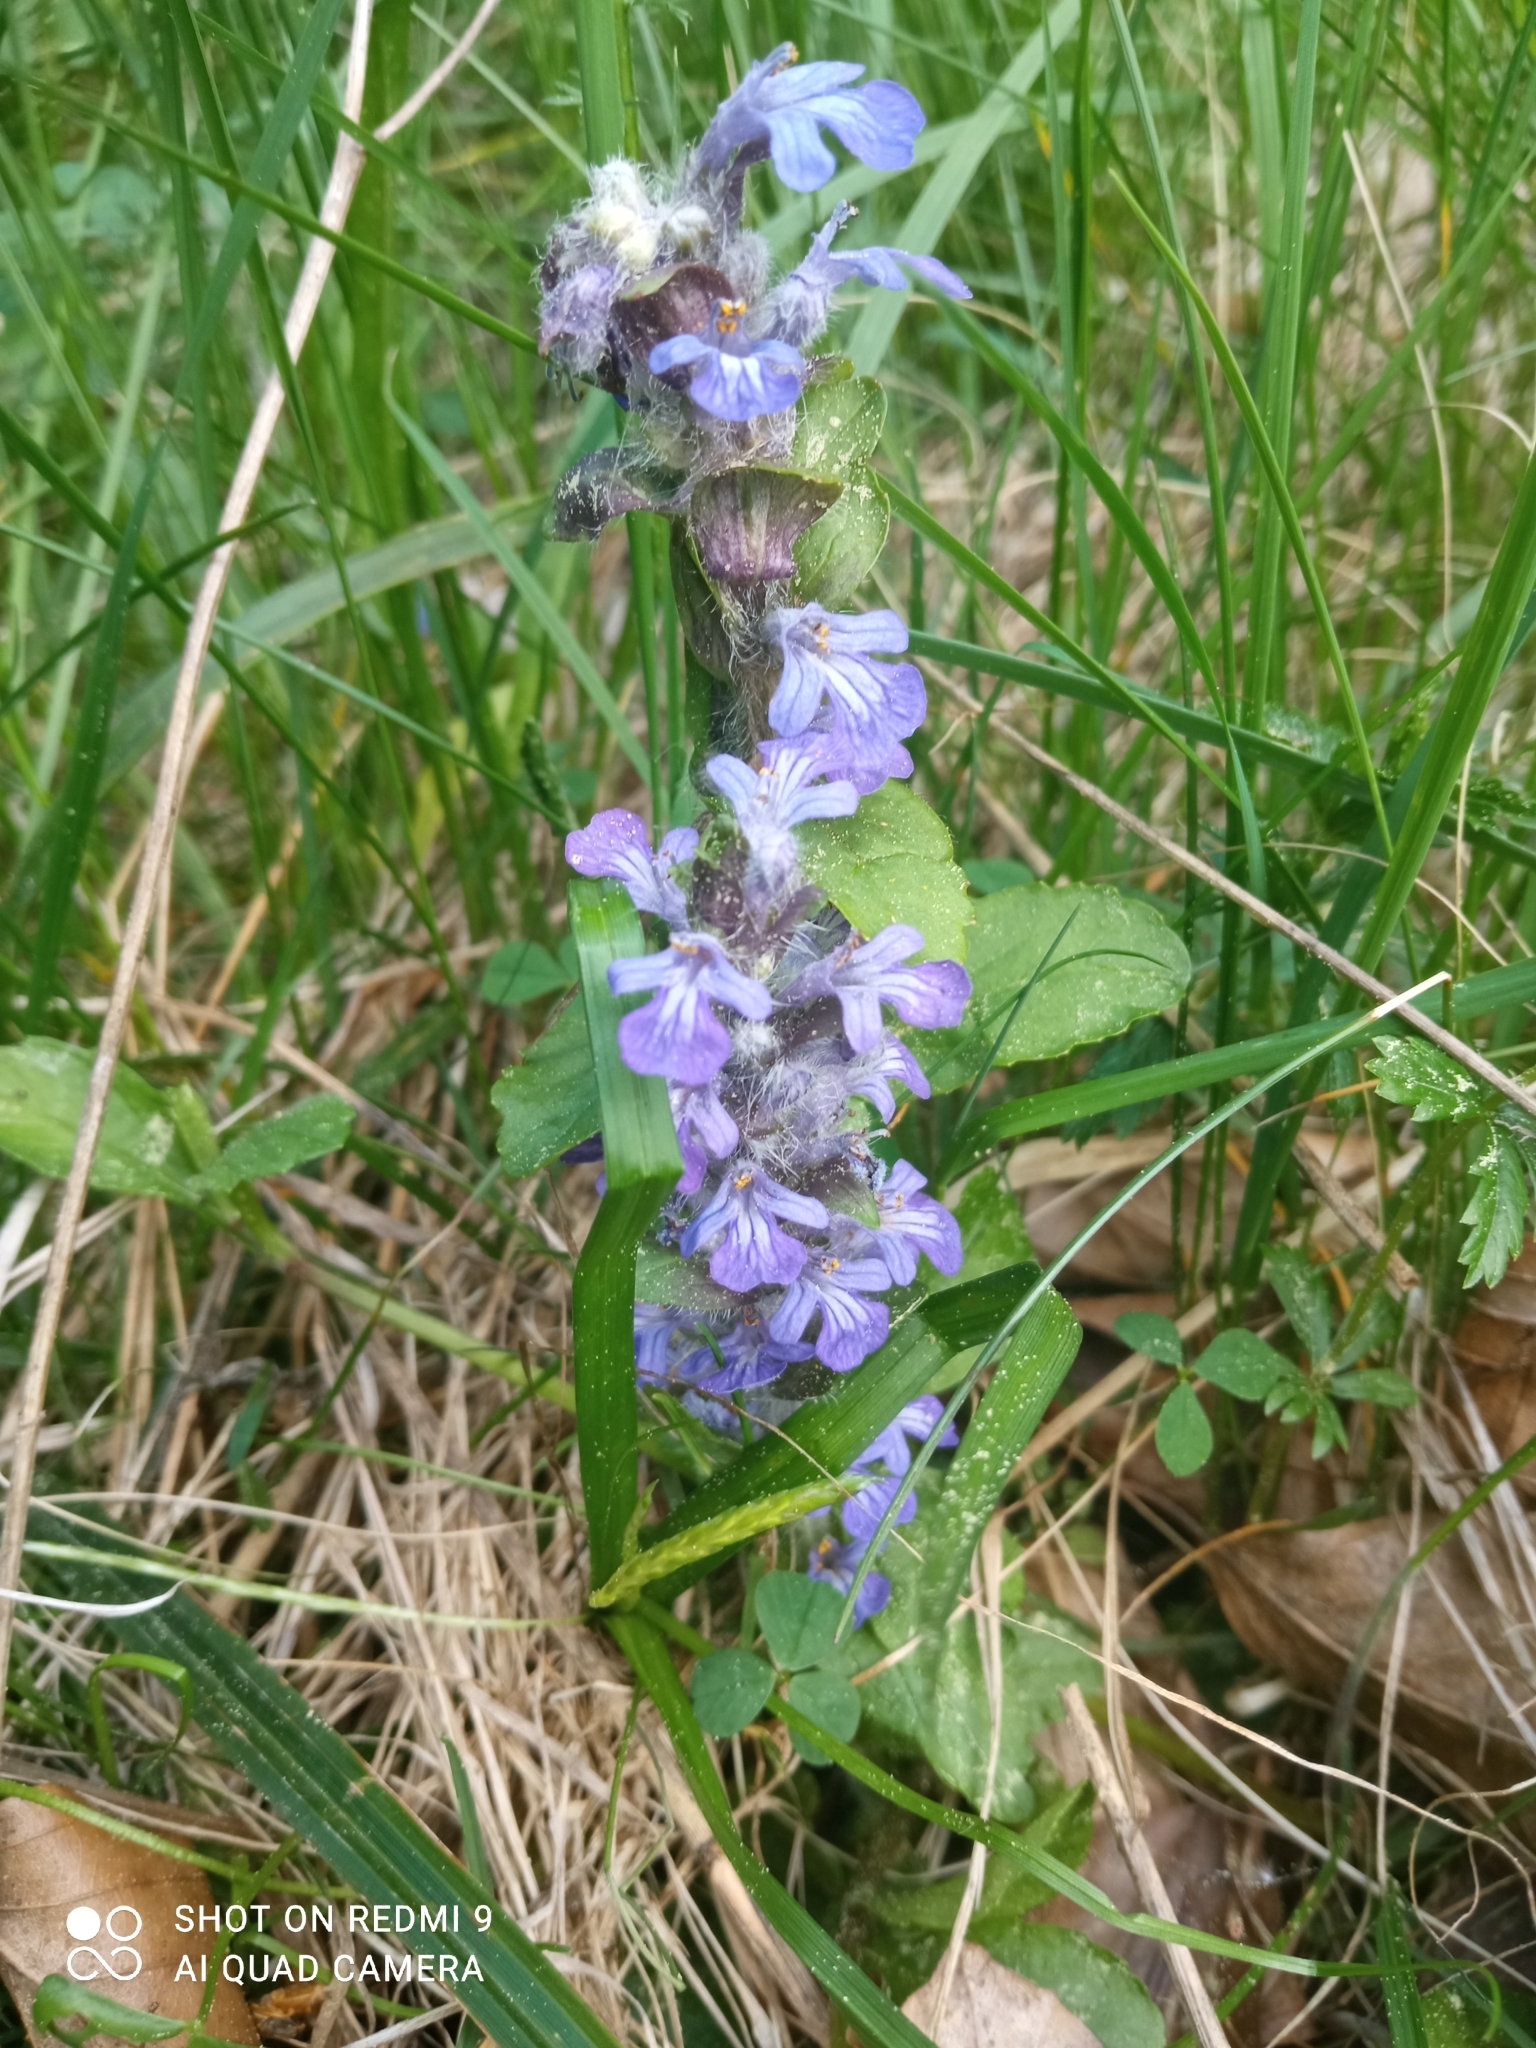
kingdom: Plantae
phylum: Tracheophyta
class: Magnoliopsida
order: Lamiales
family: Lamiaceae
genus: Ajuga
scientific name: Ajuga reptans
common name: Bugle
